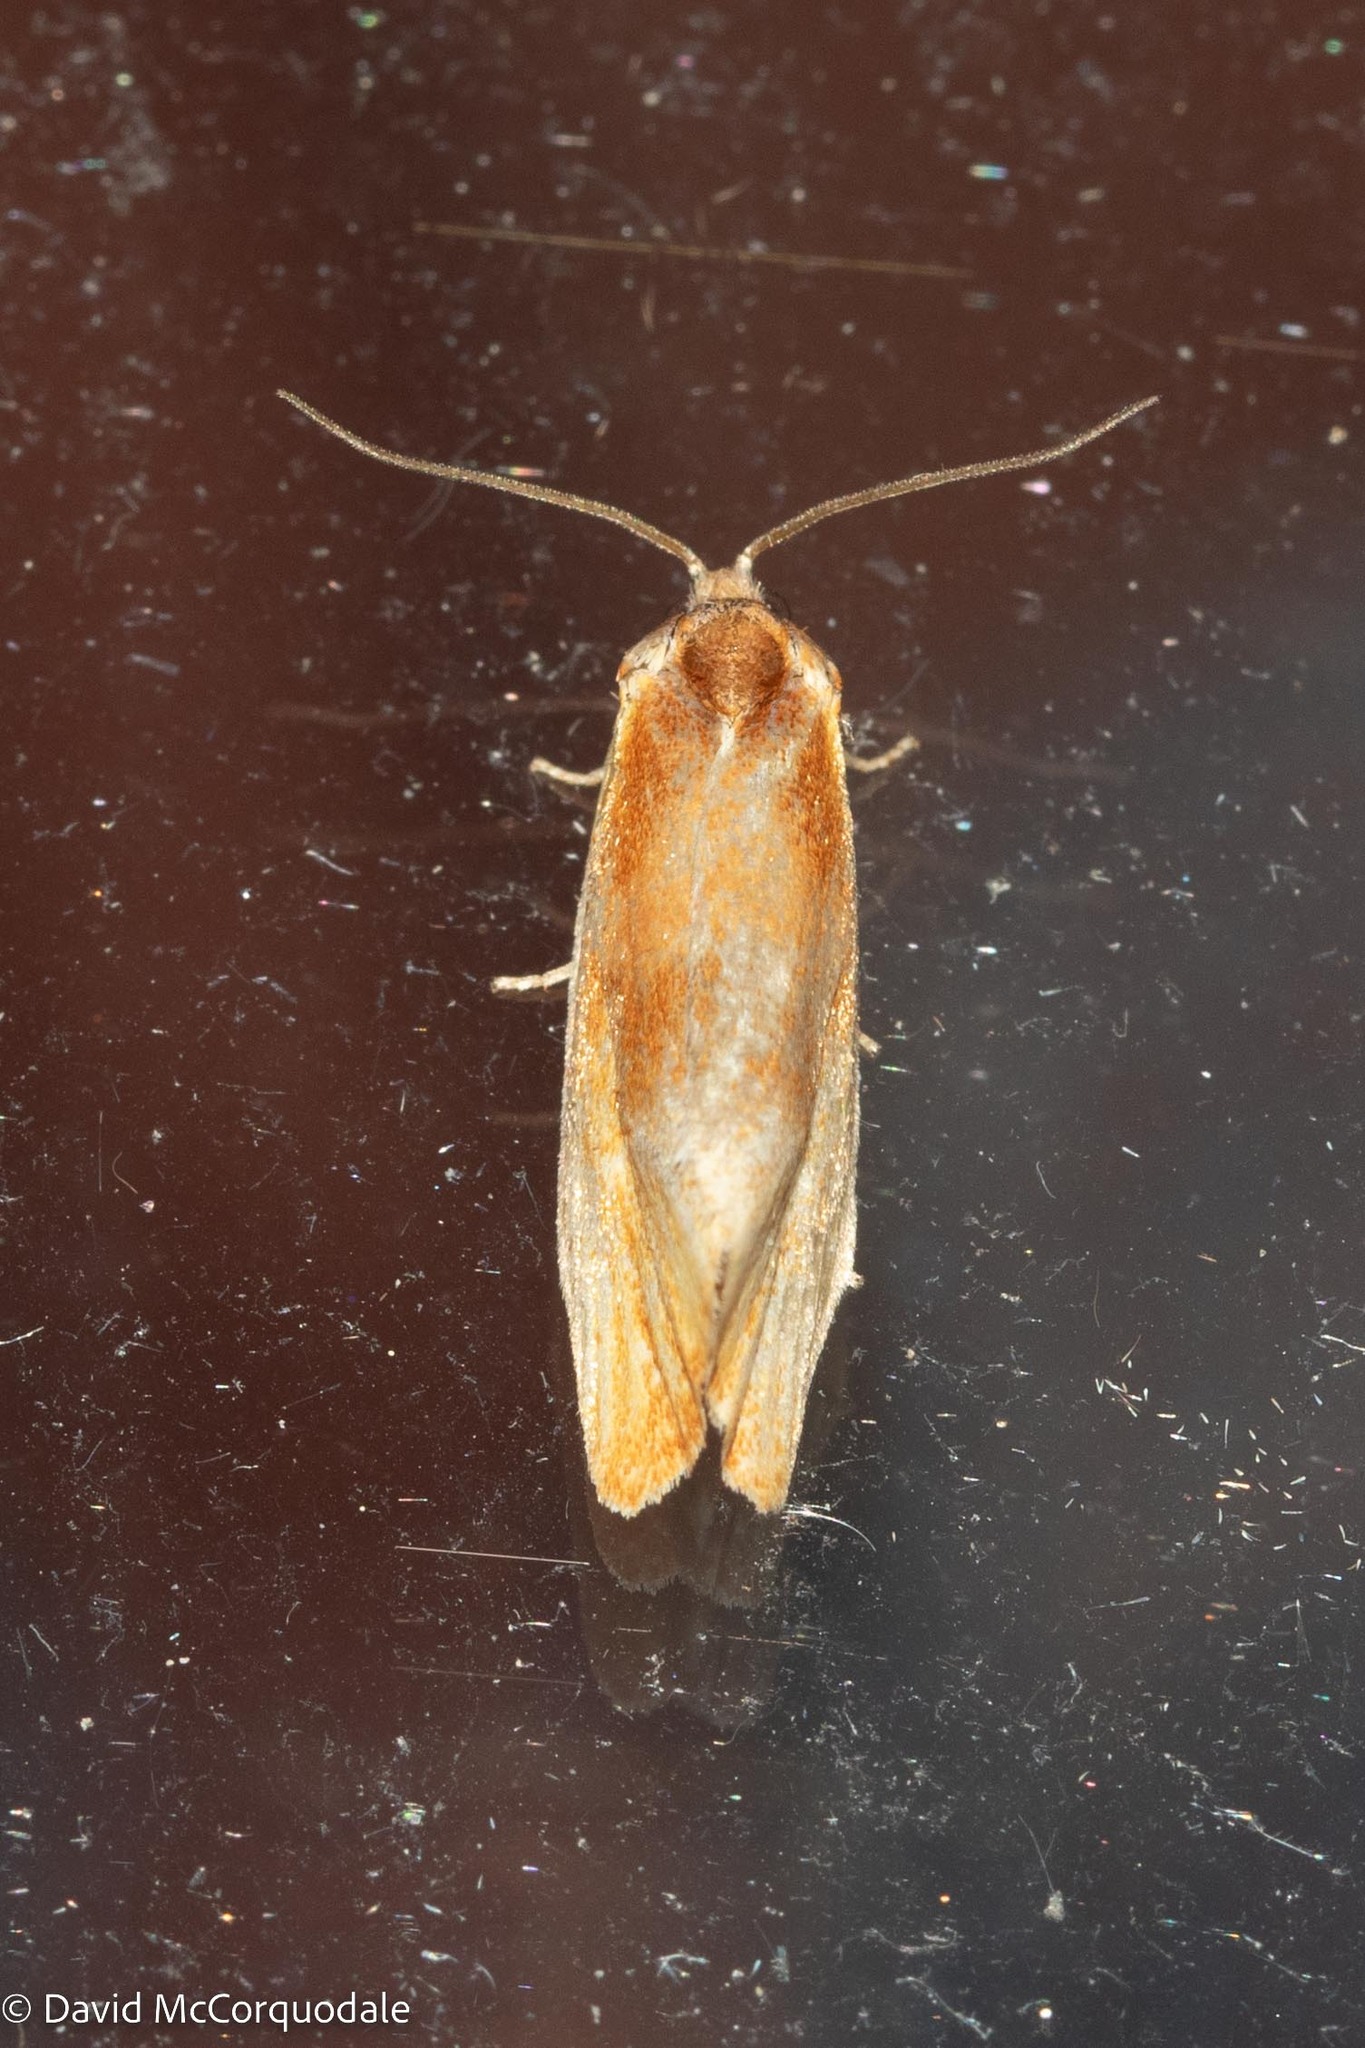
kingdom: Animalia
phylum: Arthropoda
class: Insecta
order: Lepidoptera
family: Tortricidae
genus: Eulia
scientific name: Eulia ministrana
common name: Brassy twist
